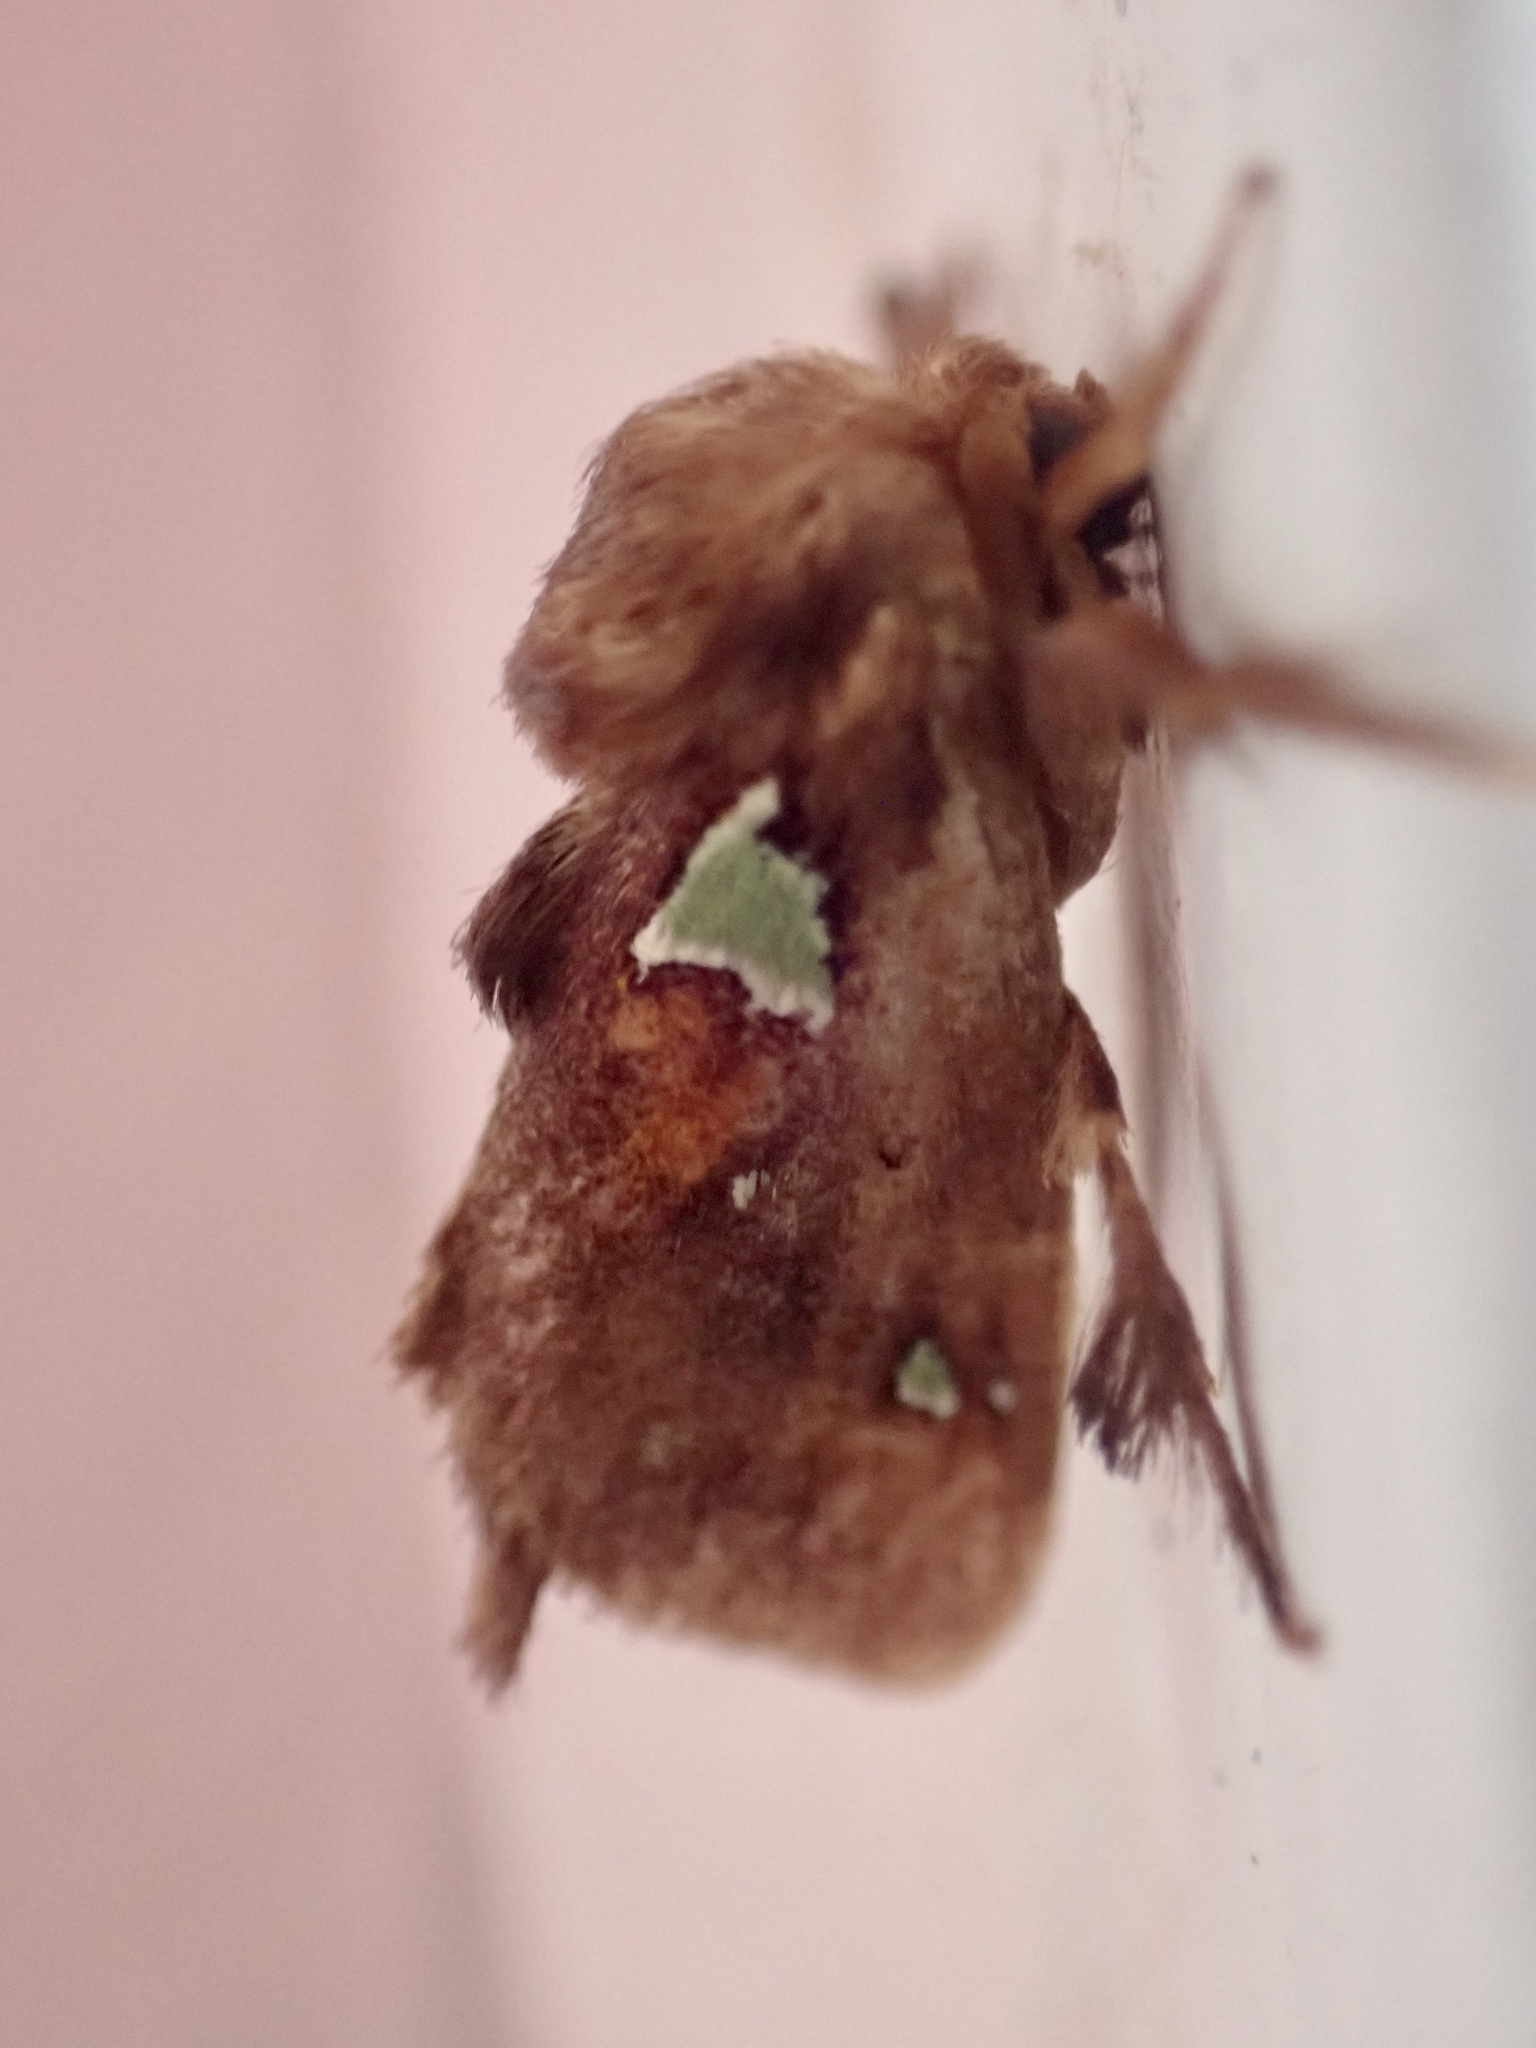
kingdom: Animalia
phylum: Arthropoda
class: Insecta
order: Lepidoptera
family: Limacodidae
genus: Euclea
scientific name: Euclea delphinii
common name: Spiny oak-slug moth
